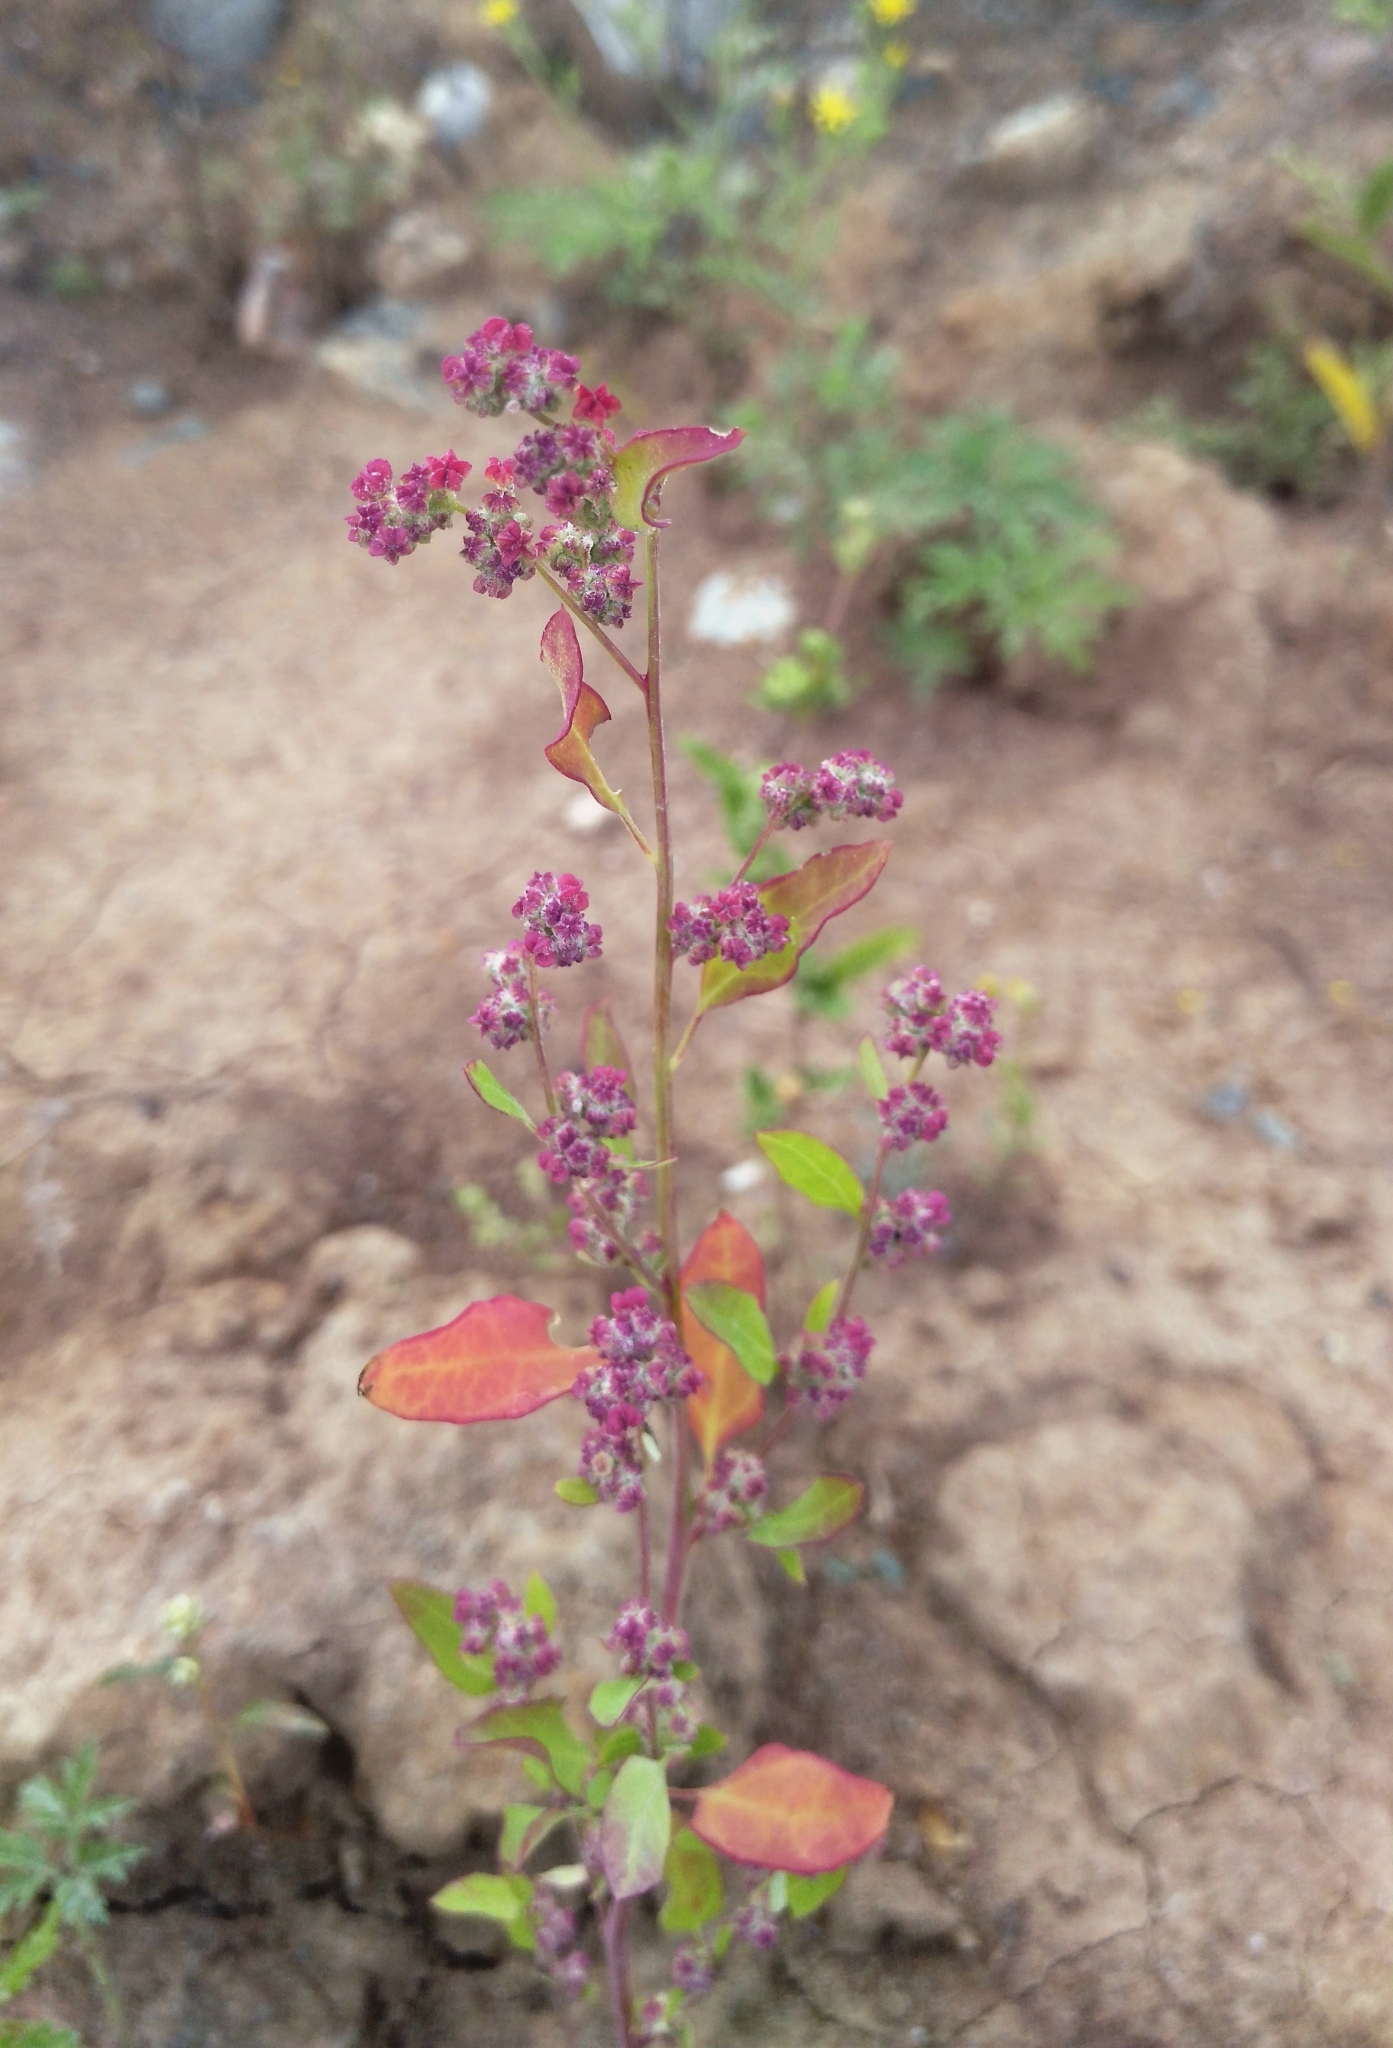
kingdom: Plantae
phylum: Tracheophyta
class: Magnoliopsida
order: Caryophyllales
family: Amaranthaceae
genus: Chenopodium
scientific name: Chenopodium album
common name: Fat-hen
